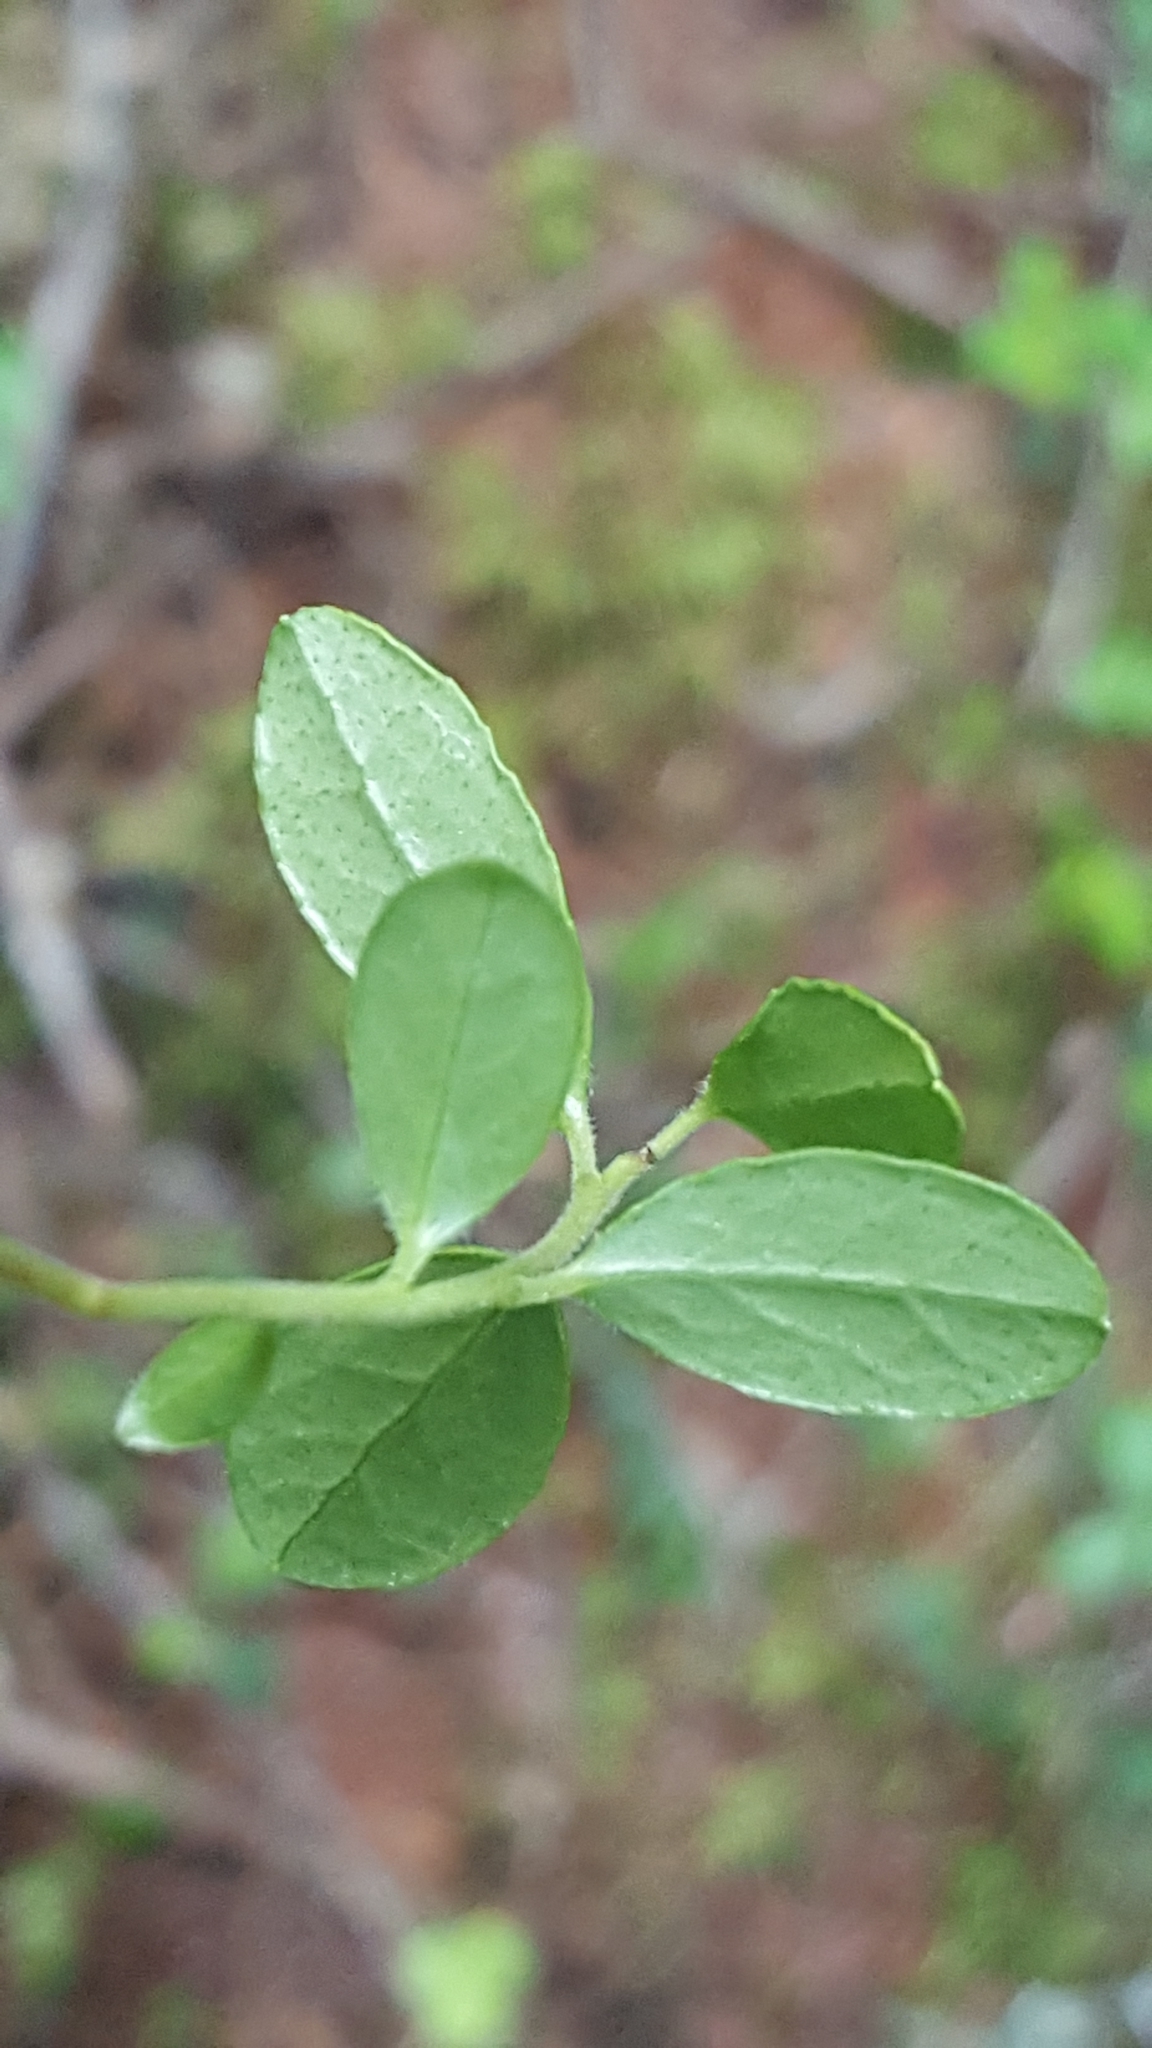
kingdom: Plantae
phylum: Tracheophyta
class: Magnoliopsida
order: Ericales
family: Ericaceae
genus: Vaccinium
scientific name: Vaccinium vitis-idaea
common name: Cowberry
